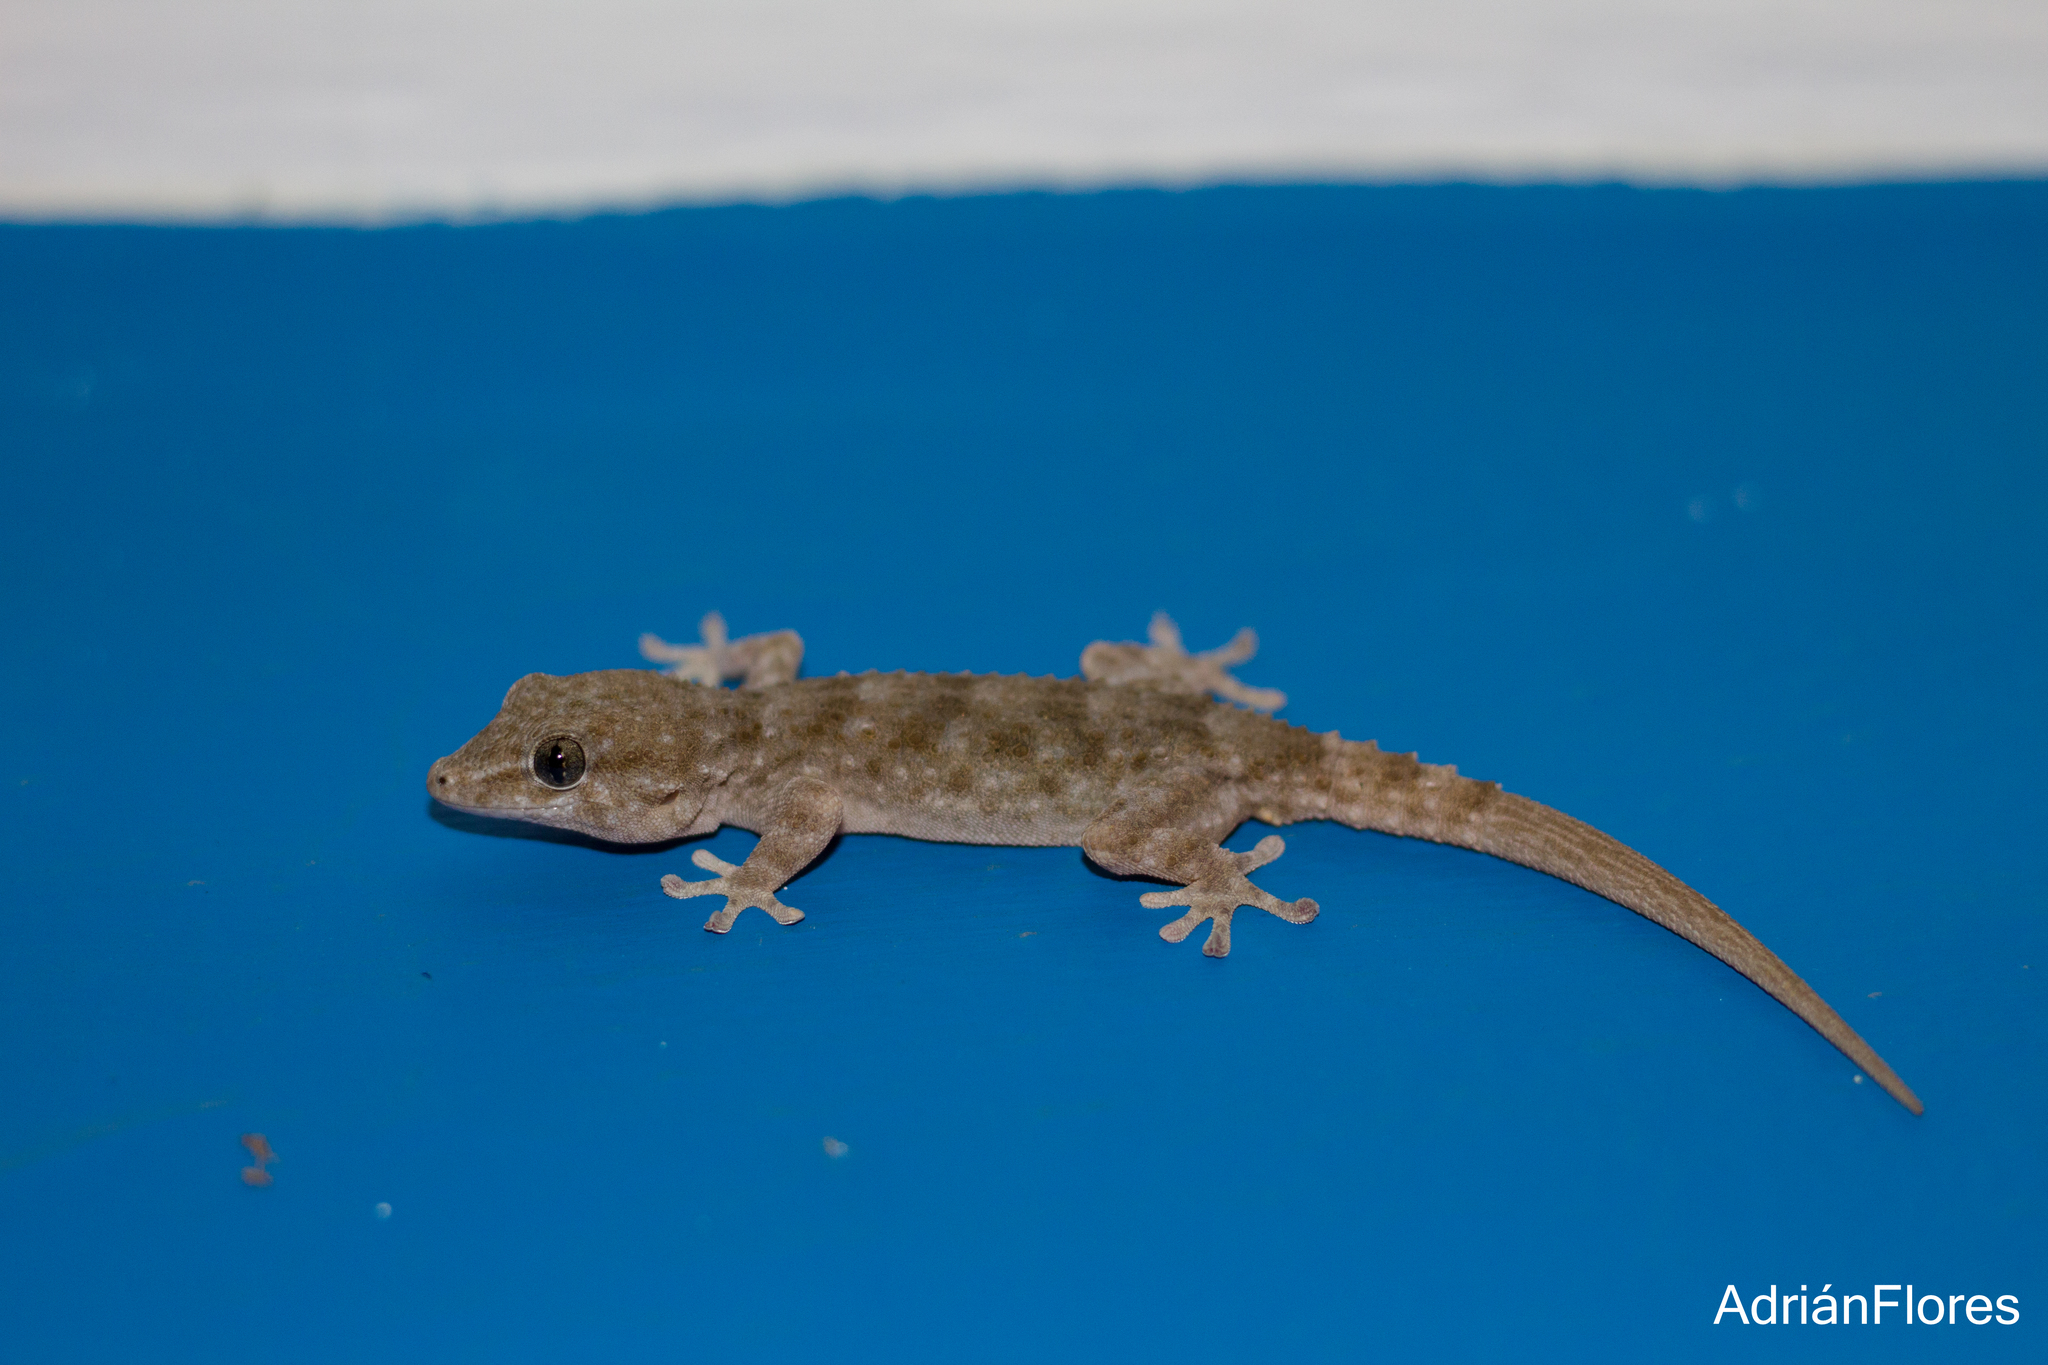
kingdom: Animalia
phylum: Chordata
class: Squamata
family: Phyllodactylidae
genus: Tarentola
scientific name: Tarentola delalandii
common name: Tenerife wall gecko
